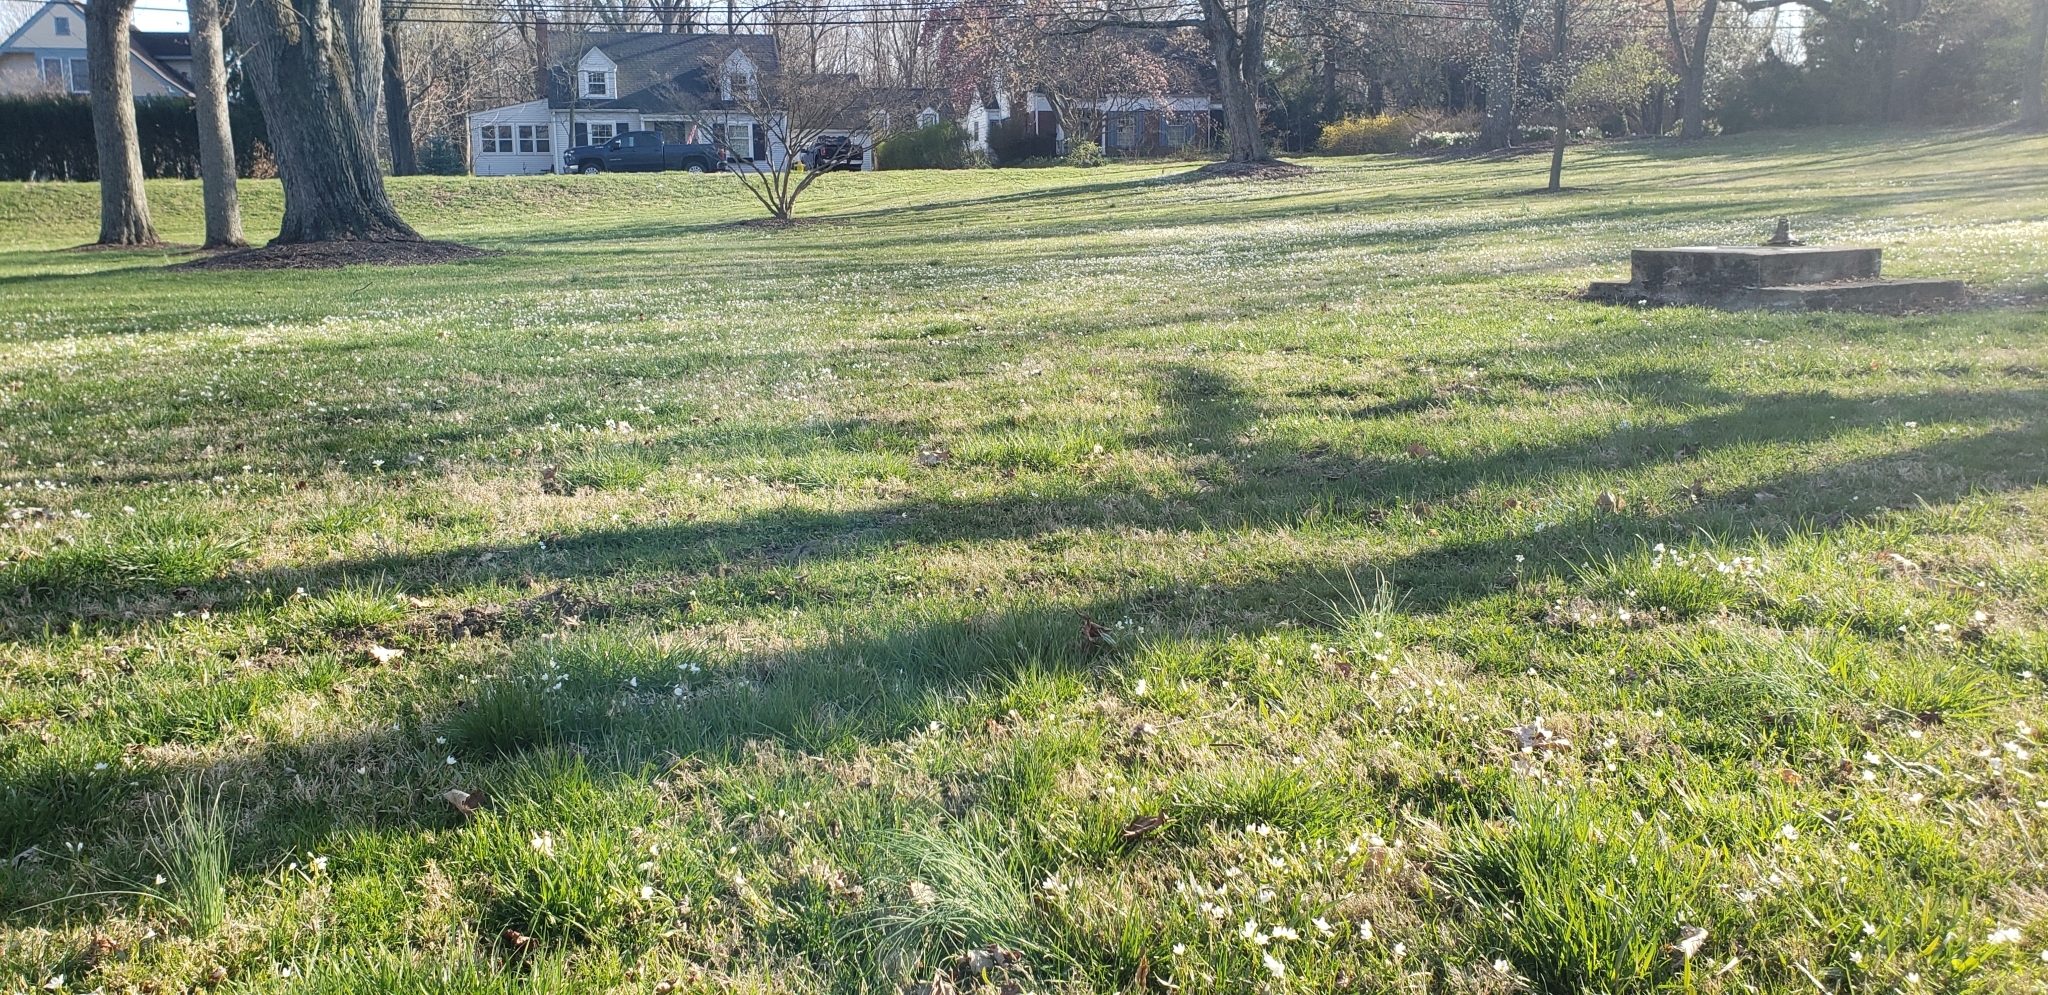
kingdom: Plantae
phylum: Tracheophyta
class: Magnoliopsida
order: Caryophyllales
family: Montiaceae
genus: Claytonia
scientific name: Claytonia virginica
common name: Virginia springbeauty
